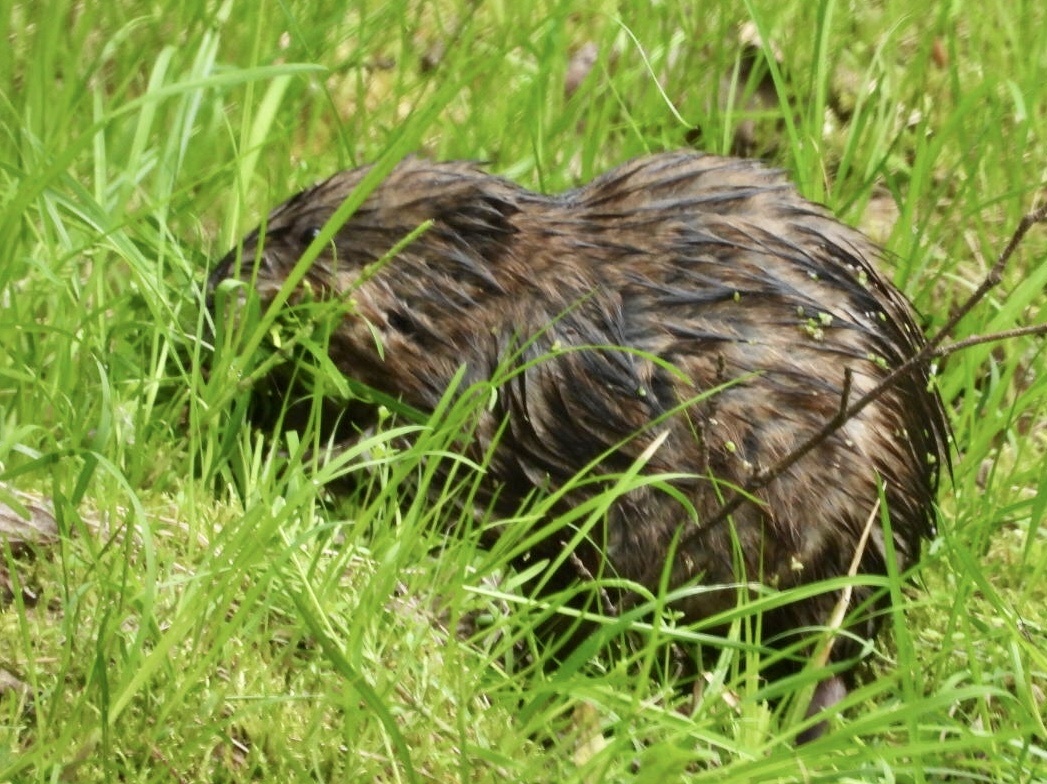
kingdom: Animalia
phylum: Chordata
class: Mammalia
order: Rodentia
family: Cricetidae
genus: Ondatra
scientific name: Ondatra zibethicus
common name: Muskrat
